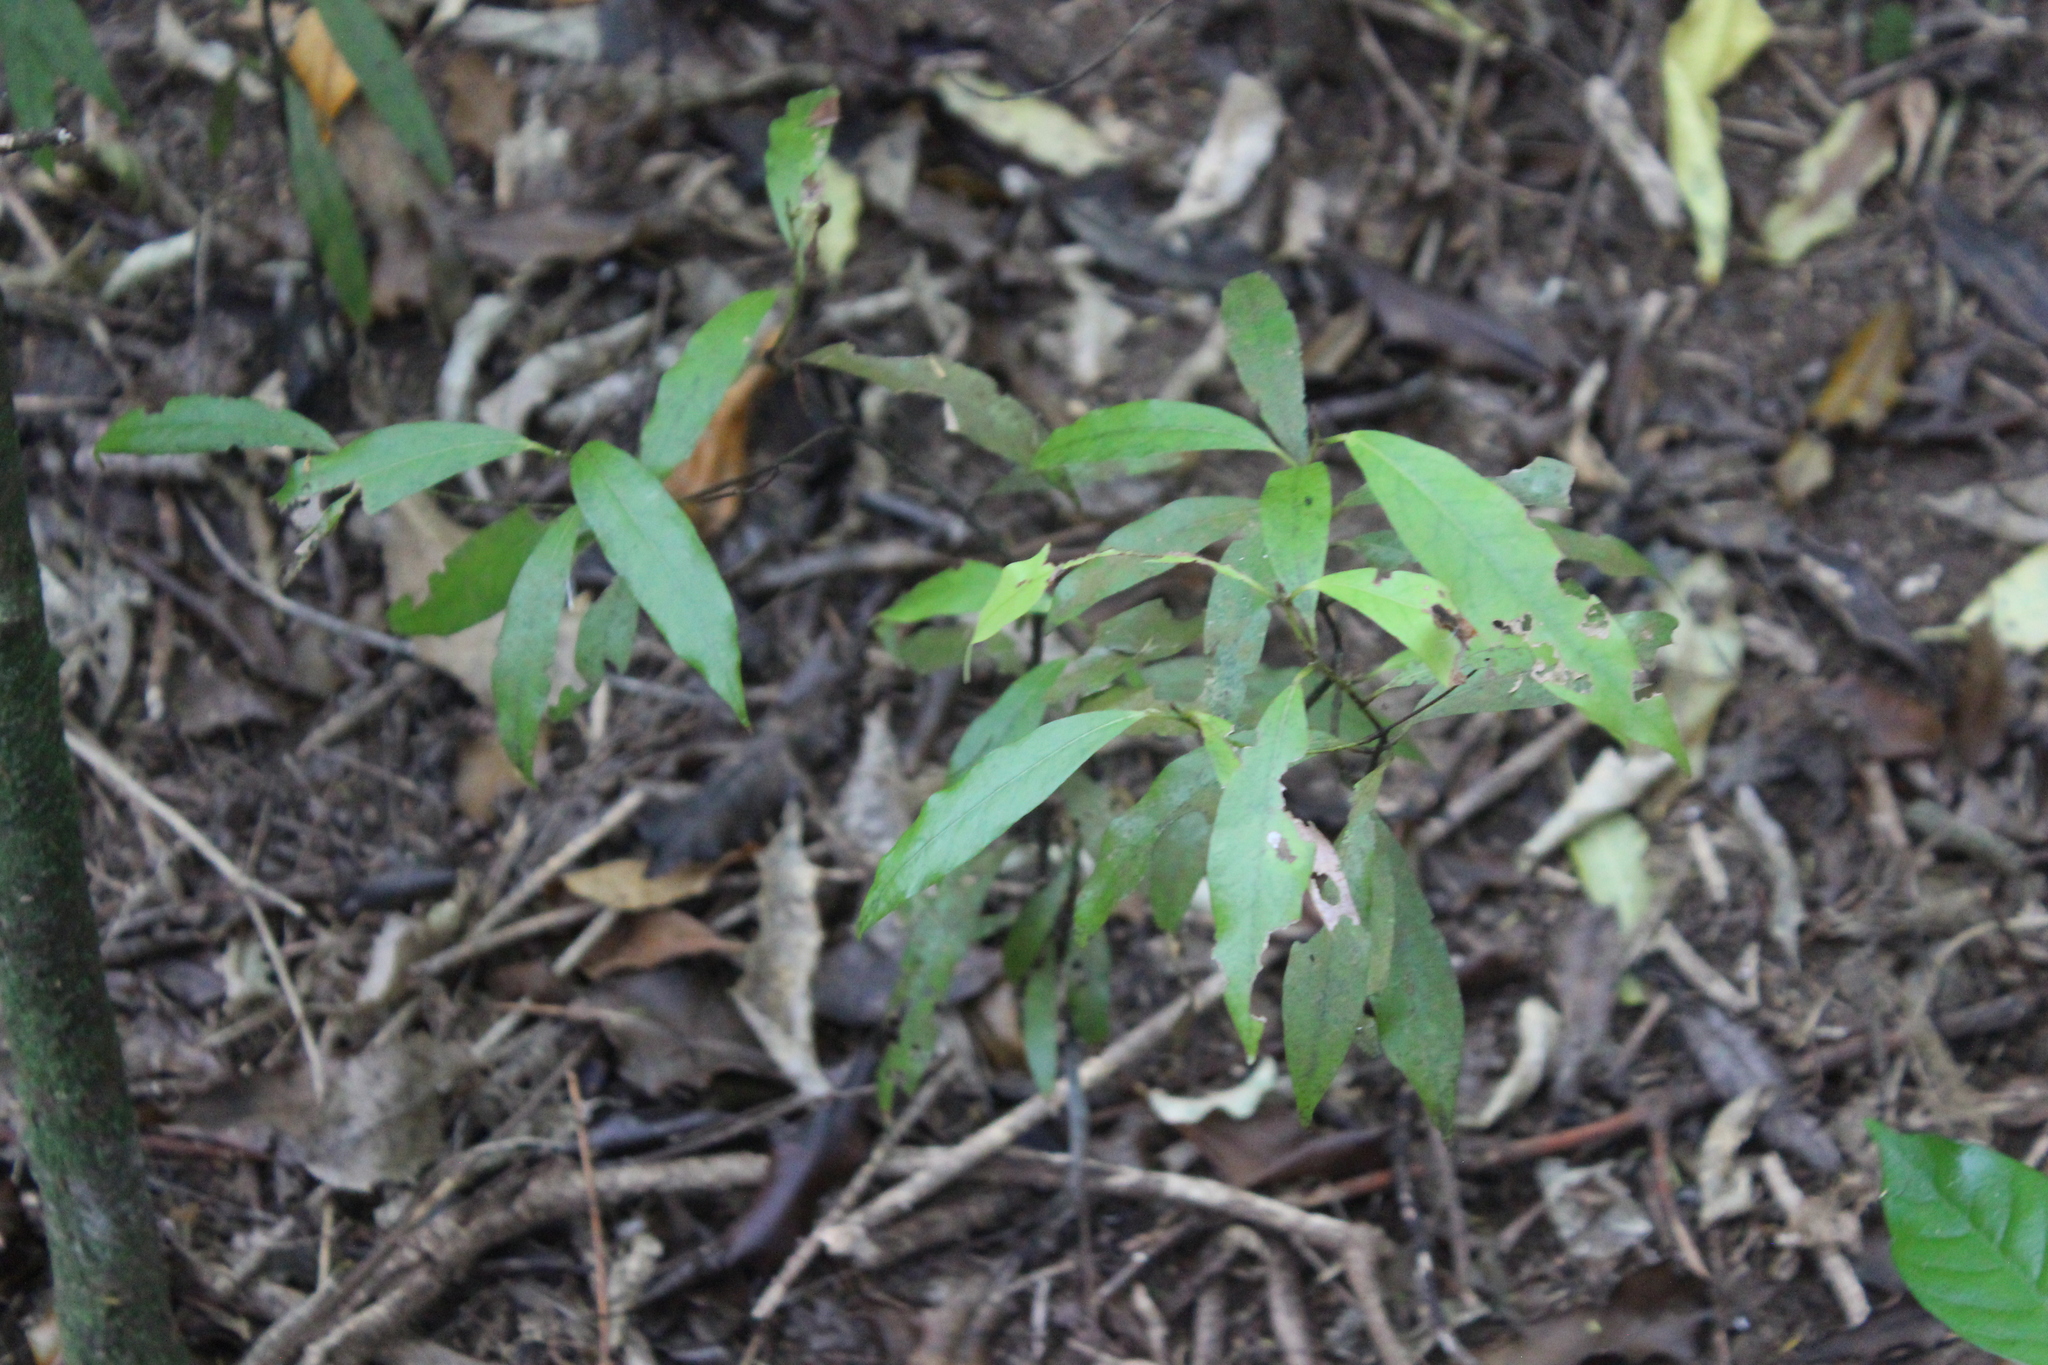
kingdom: Plantae
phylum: Tracheophyta
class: Magnoliopsida
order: Laurales
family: Lauraceae
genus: Beilschmiedia
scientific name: Beilschmiedia tawa
